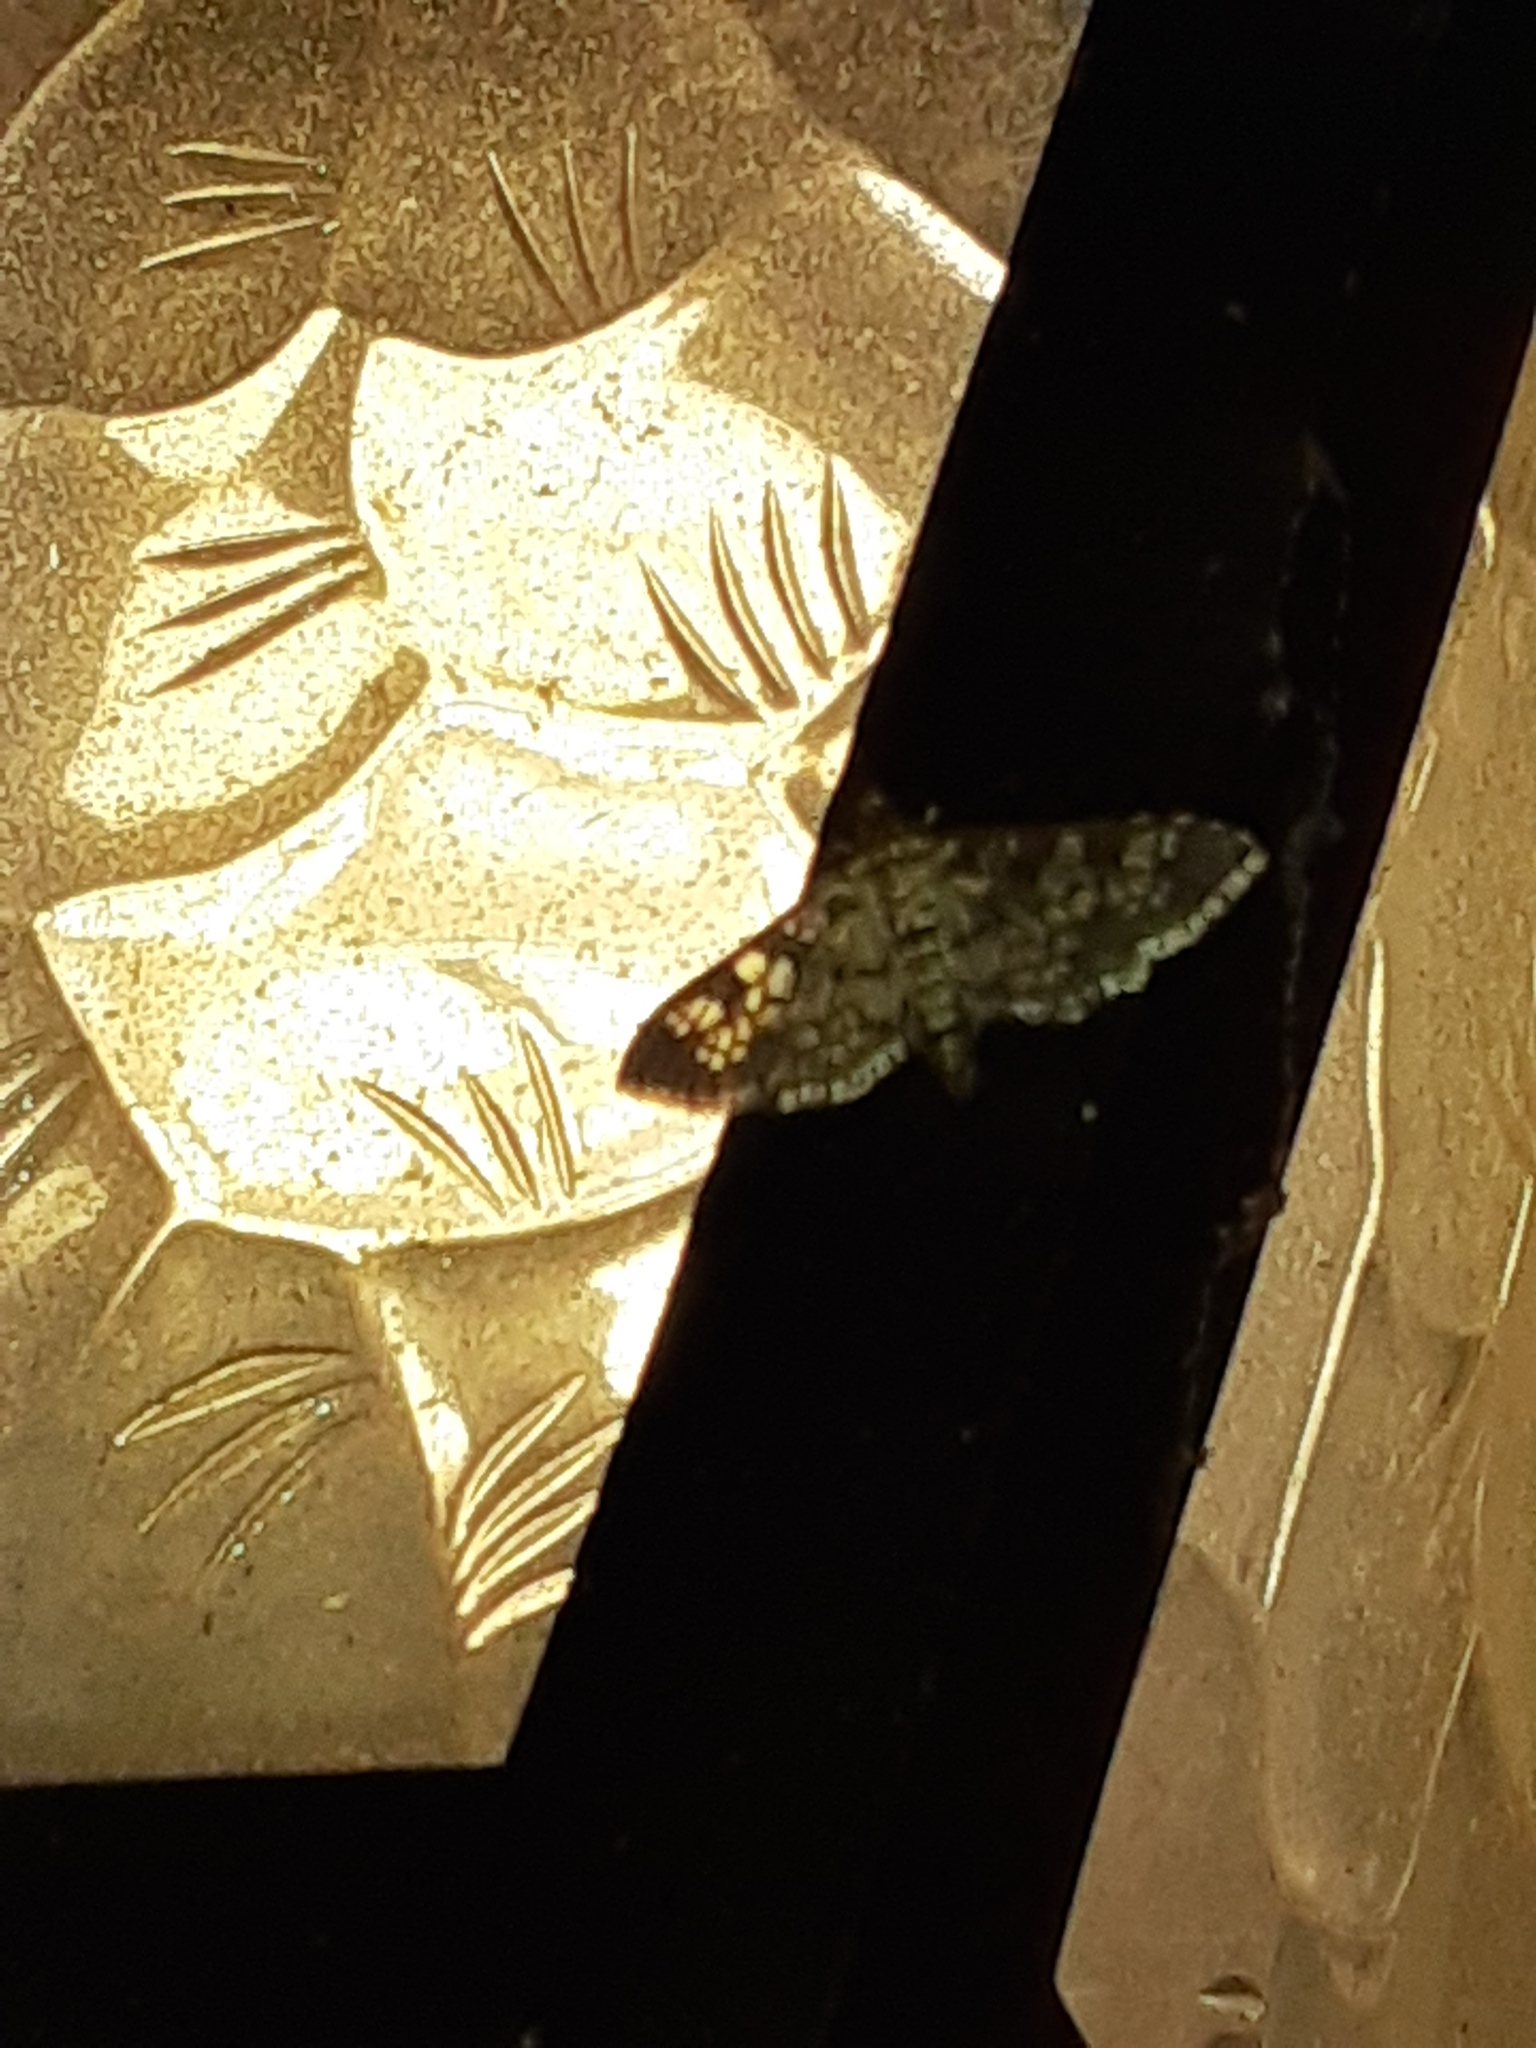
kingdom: Animalia
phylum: Arthropoda
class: Insecta
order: Lepidoptera
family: Crambidae
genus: Samea
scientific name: Samea ecclesialis
